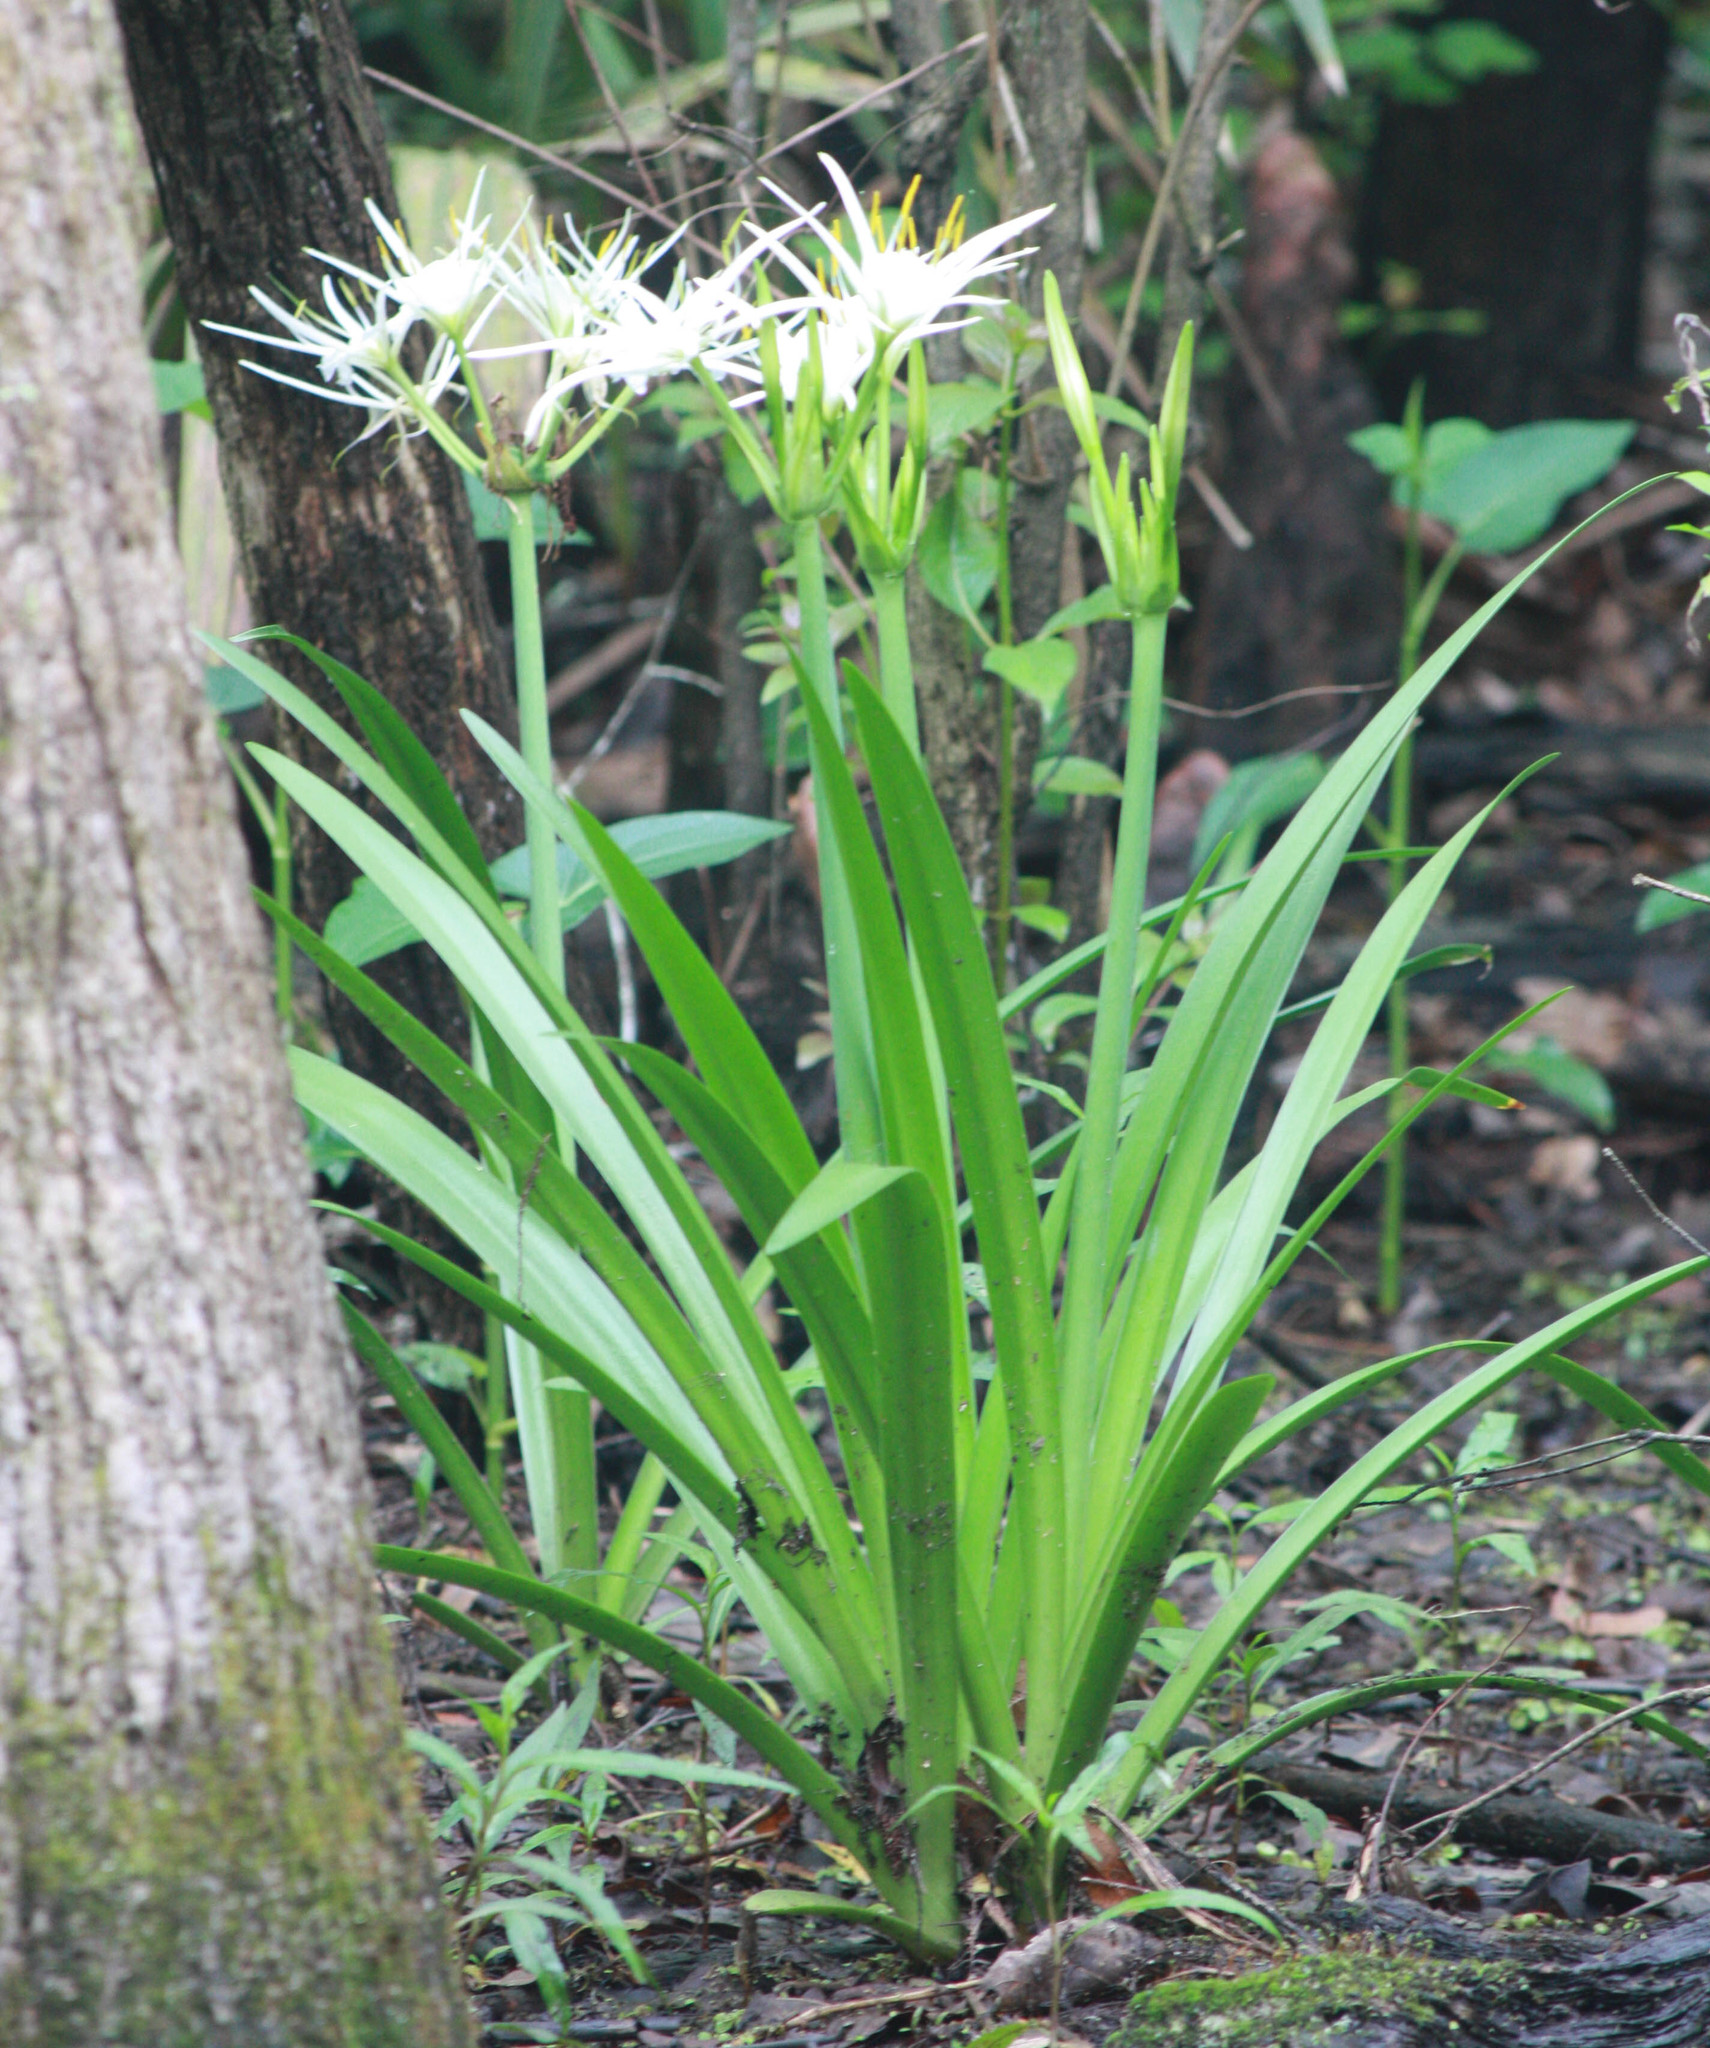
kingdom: Plantae
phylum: Tracheophyta
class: Liliopsida
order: Asparagales
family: Amaryllidaceae
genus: Hymenocallis
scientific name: Hymenocallis liriosme
